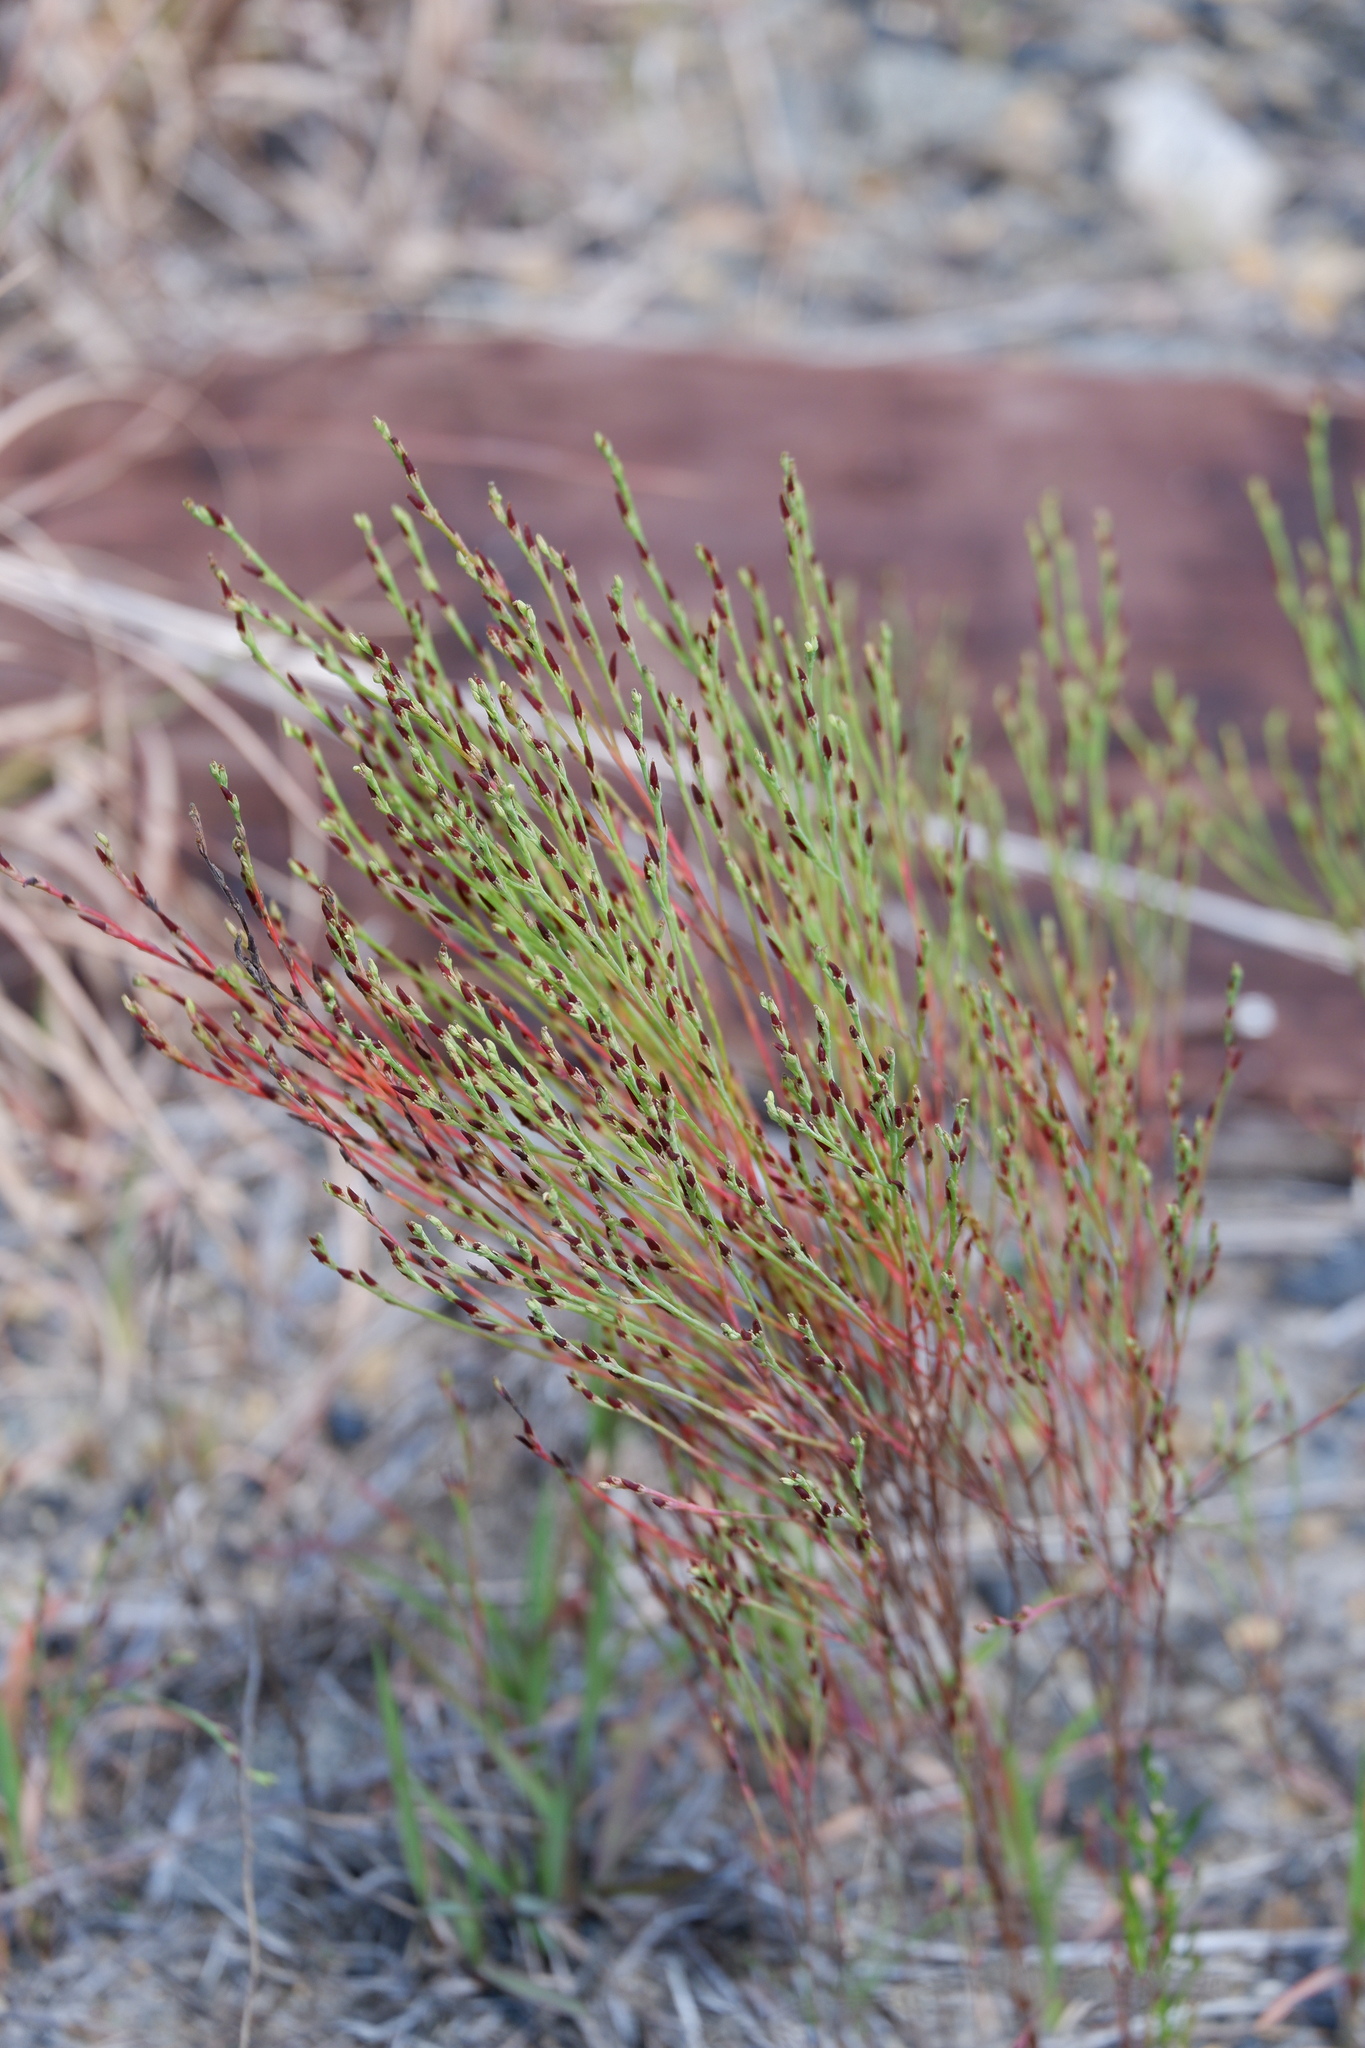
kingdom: Plantae
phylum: Tracheophyta
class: Magnoliopsida
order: Malpighiales
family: Hypericaceae
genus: Hypericum
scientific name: Hypericum gentianoides
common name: Gentian-leaved st. john's-wort
